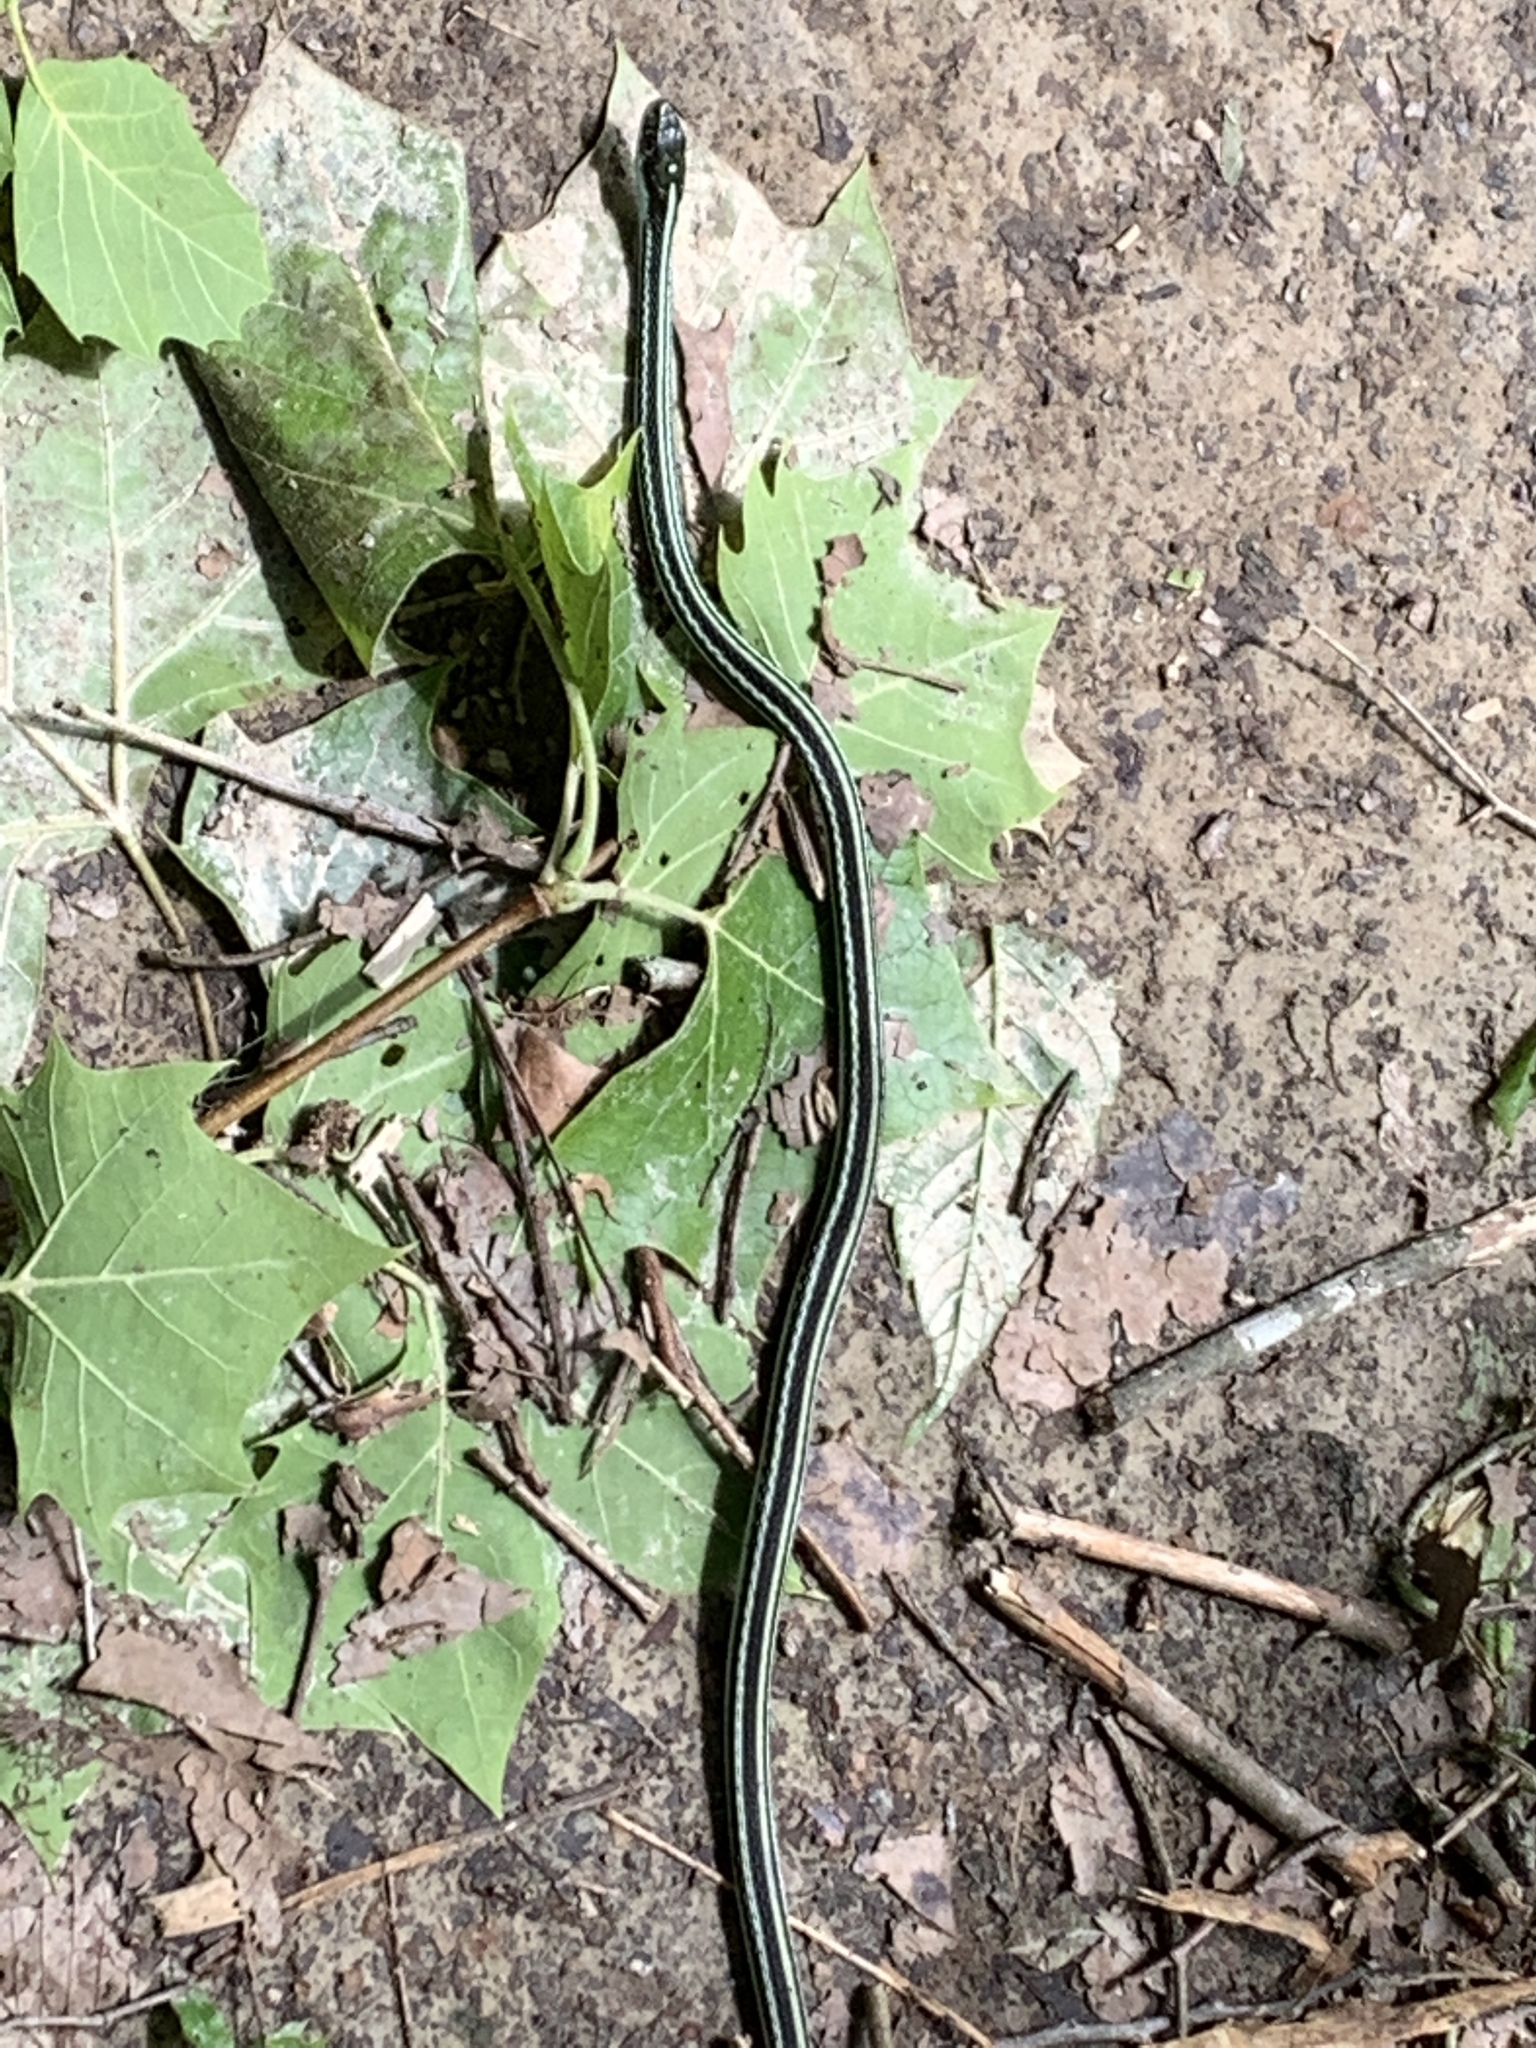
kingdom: Animalia
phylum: Chordata
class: Squamata
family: Colubridae
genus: Thamnophis
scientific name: Thamnophis proximus
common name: Western ribbon snake
